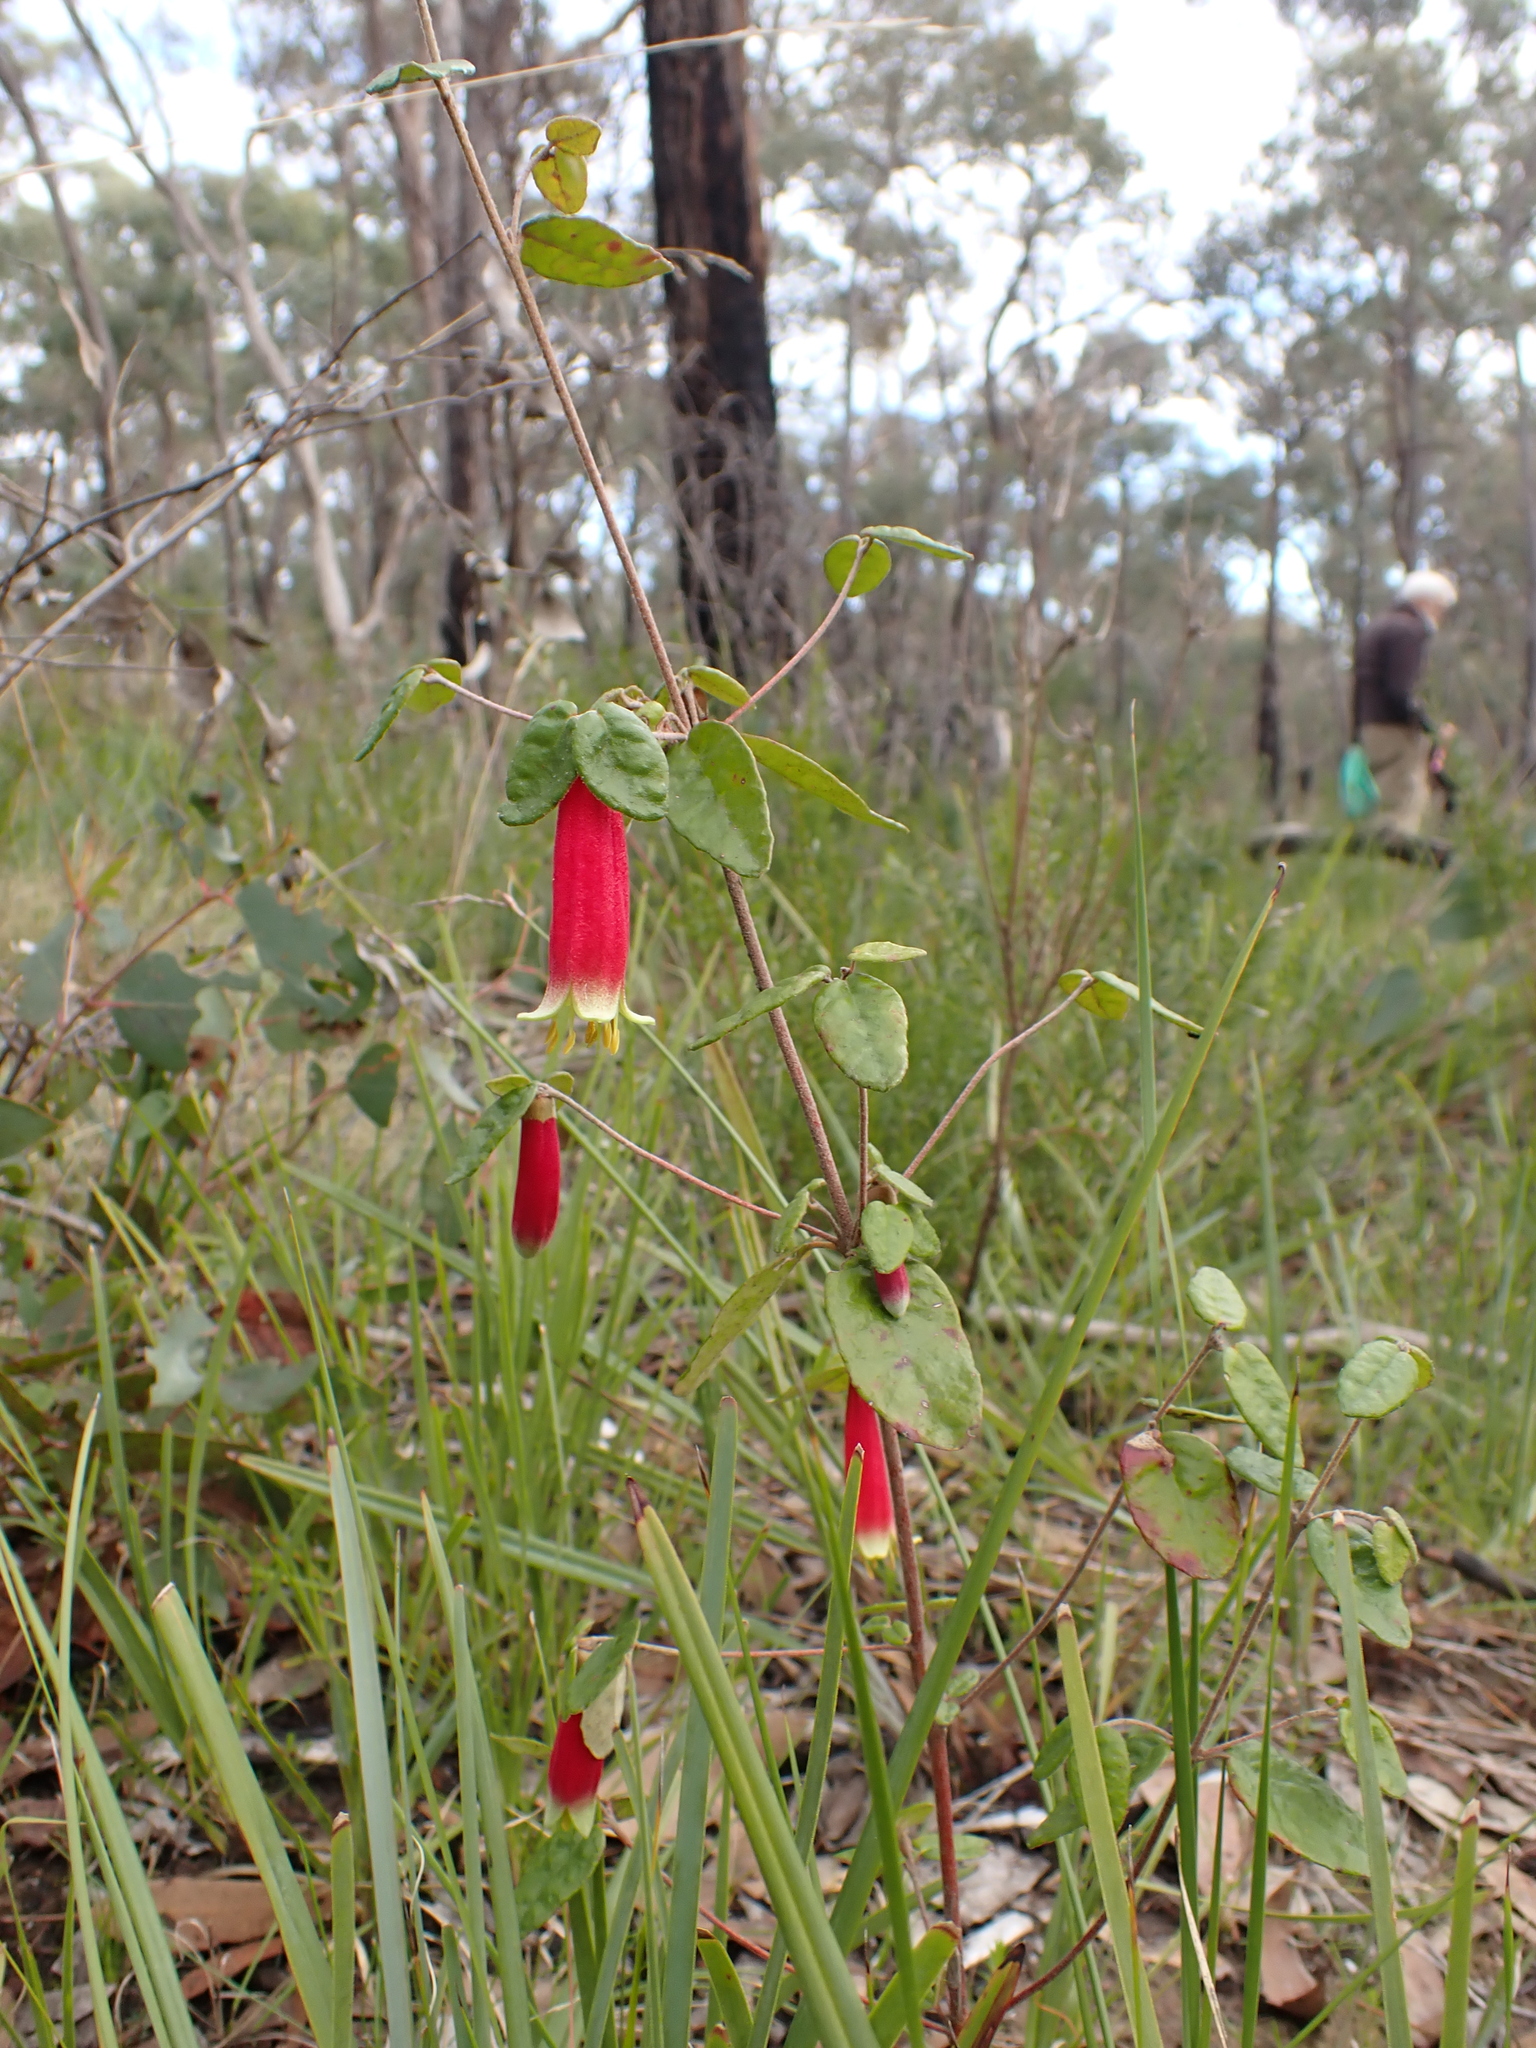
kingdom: Plantae
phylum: Tracheophyta
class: Magnoliopsida
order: Sapindales
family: Rutaceae
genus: Correa
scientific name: Correa reflexa
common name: Common correa
